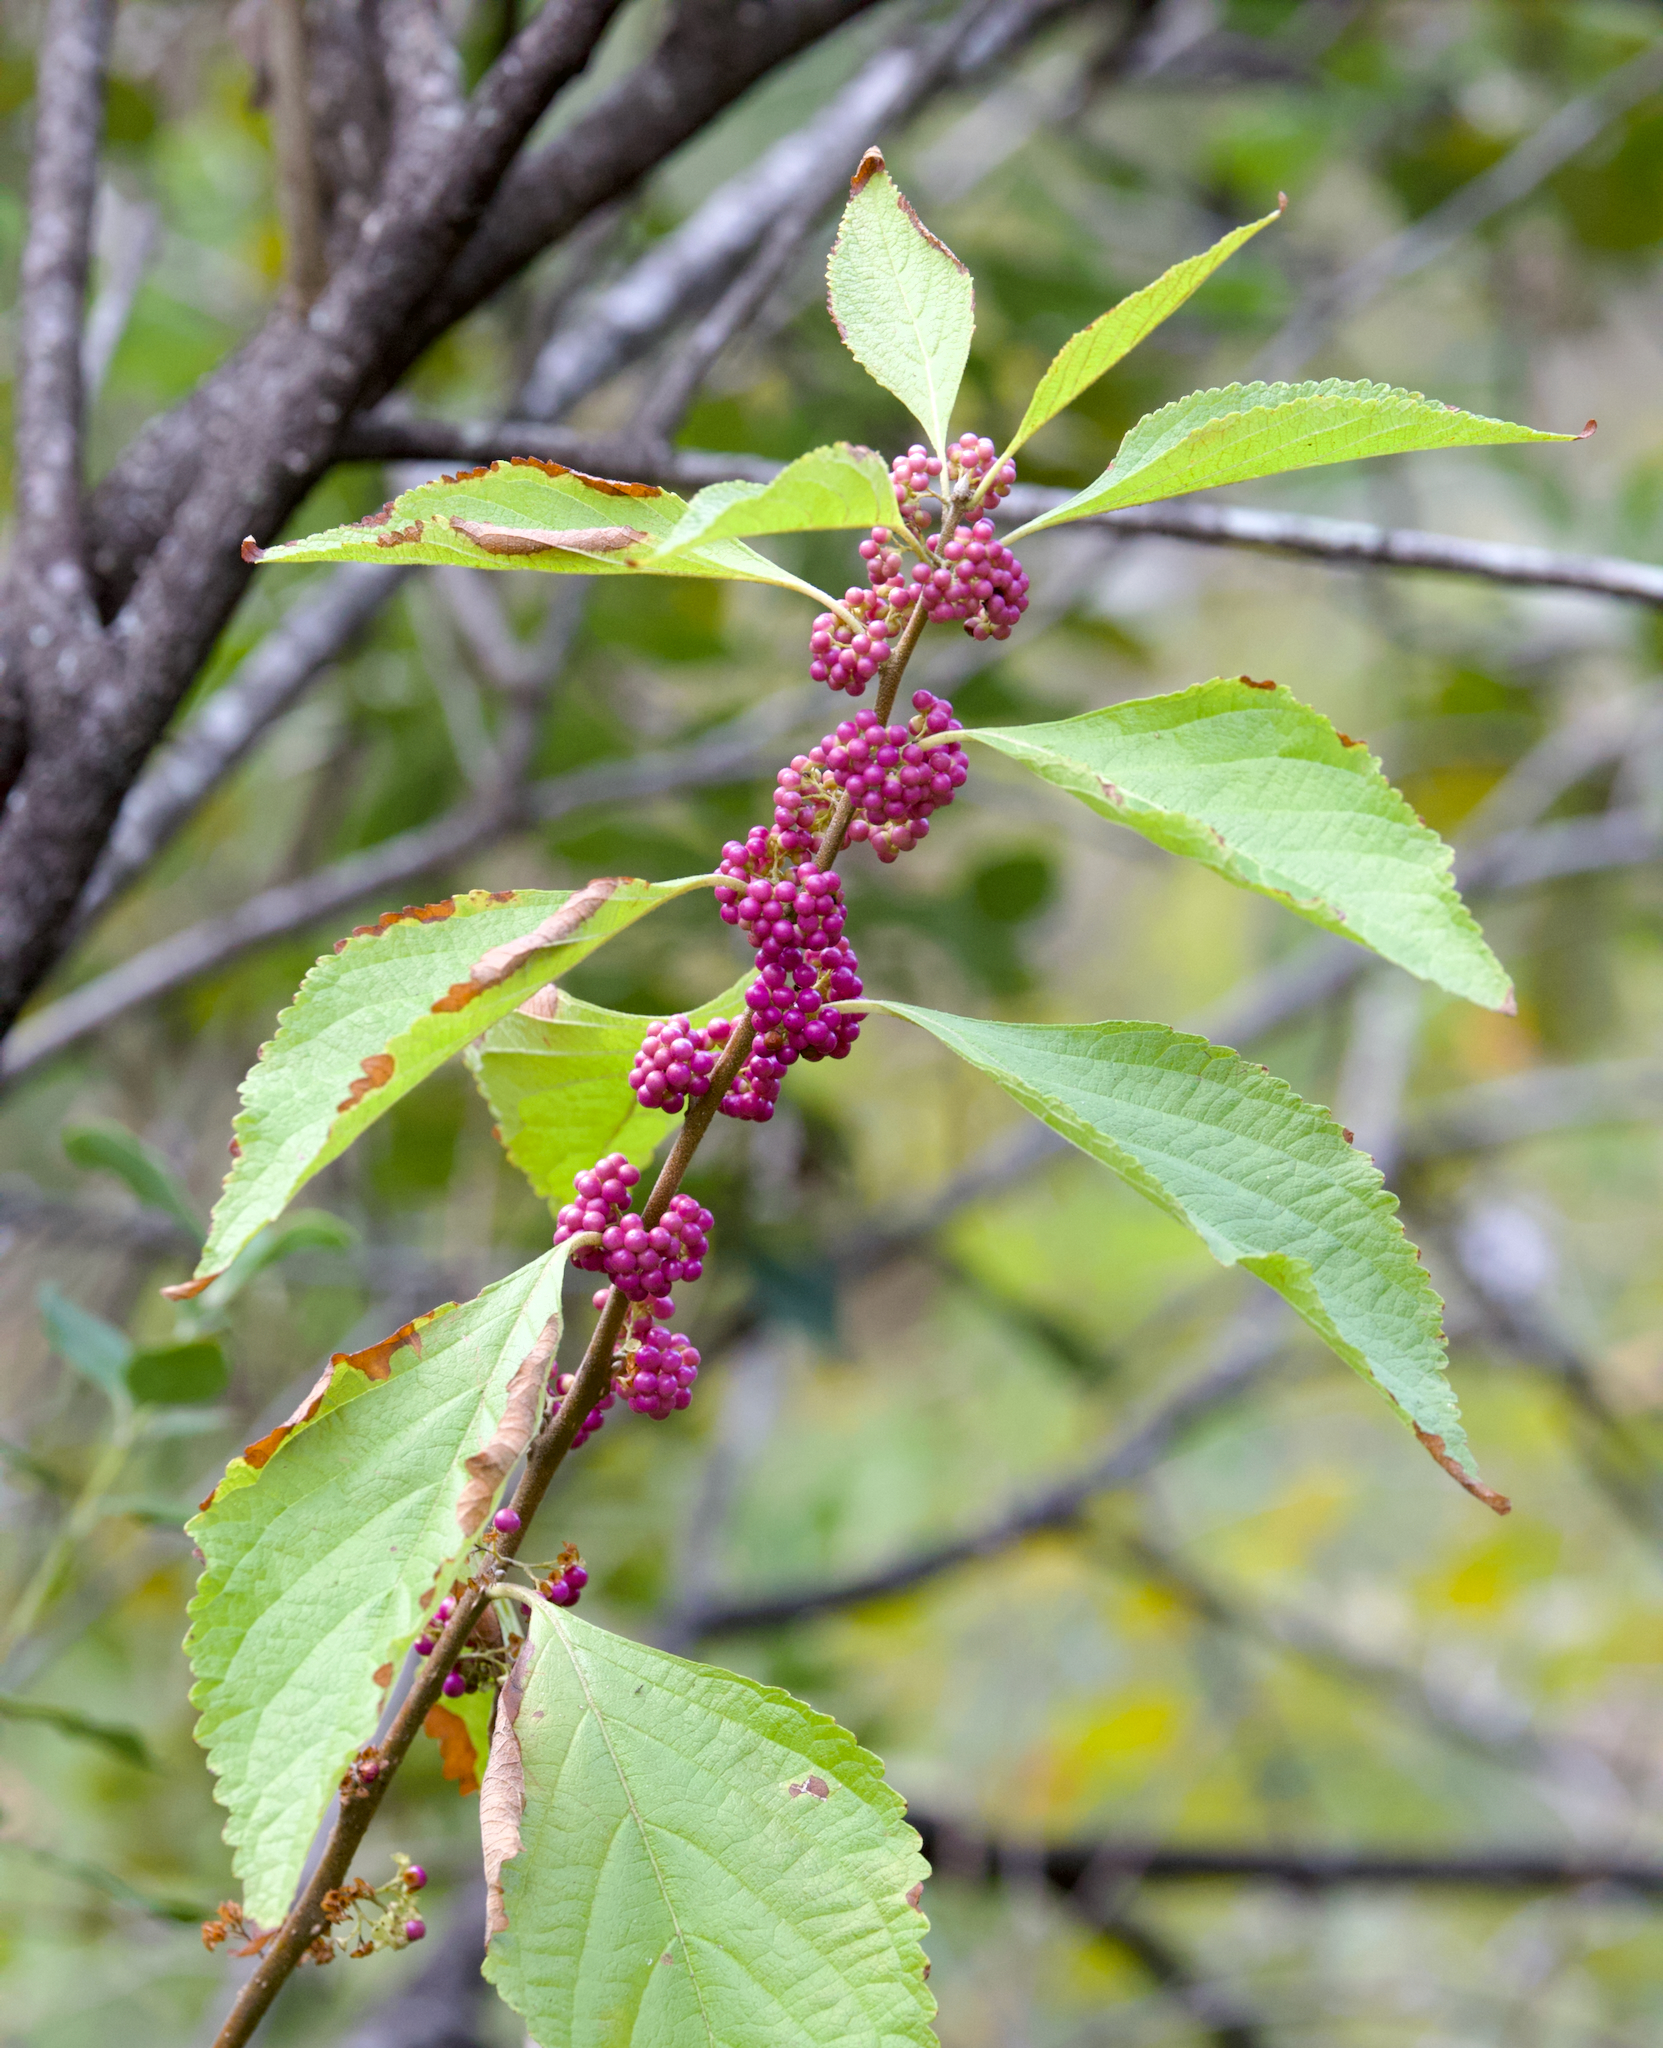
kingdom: Plantae
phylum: Tracheophyta
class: Magnoliopsida
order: Lamiales
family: Lamiaceae
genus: Callicarpa
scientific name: Callicarpa americana
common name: American beautyberry
